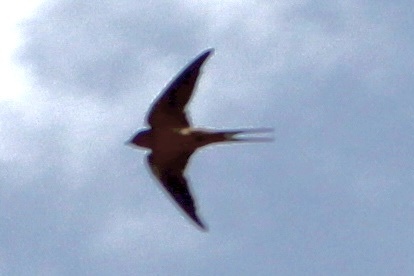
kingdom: Animalia
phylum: Chordata
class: Aves
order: Passeriformes
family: Hirundinidae
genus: Hirundo
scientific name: Hirundo rustica
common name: Barn swallow
